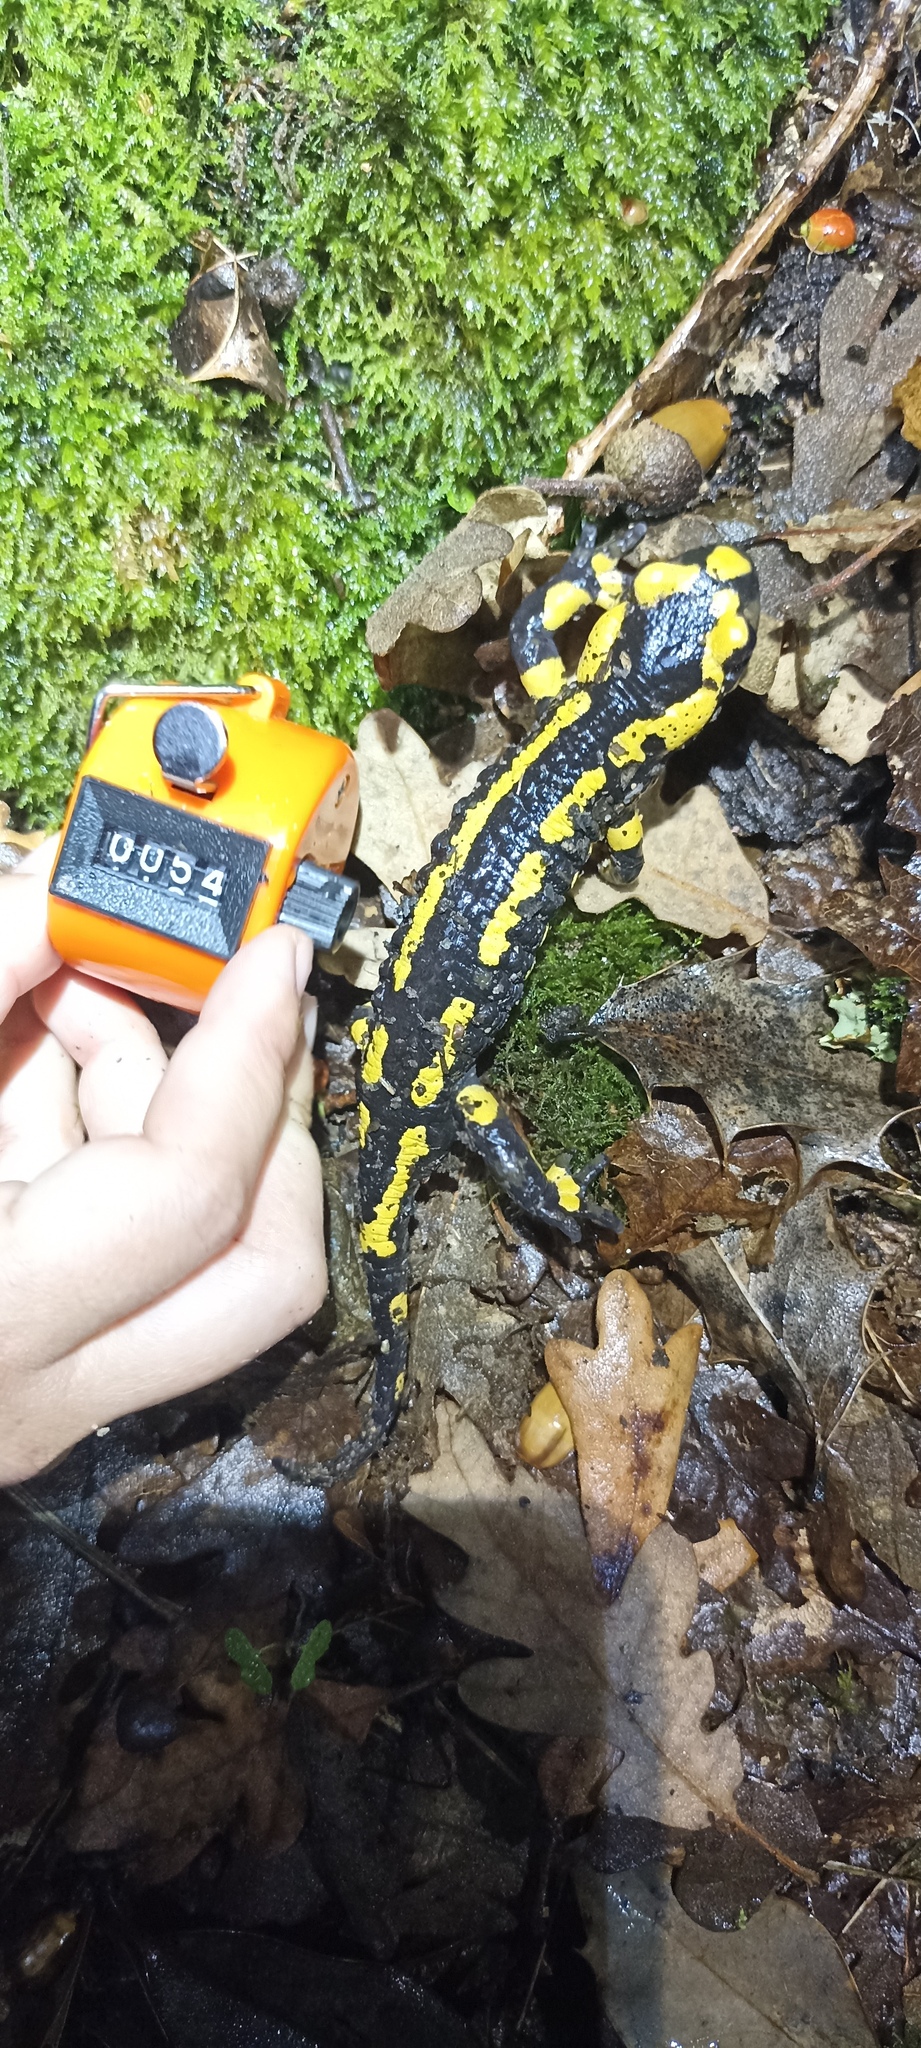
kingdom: Animalia
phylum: Chordata
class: Amphibia
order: Caudata
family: Salamandridae
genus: Salamandra
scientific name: Salamandra salamandra
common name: Fire salamander
